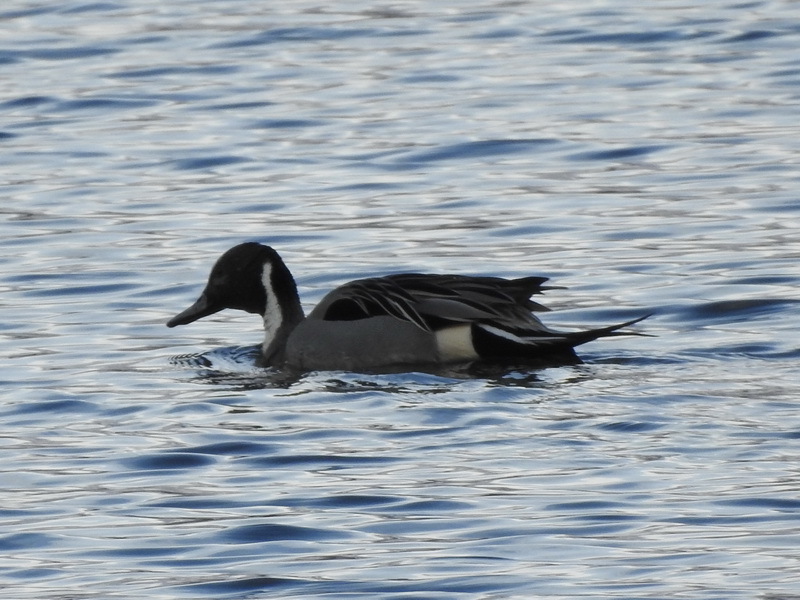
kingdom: Animalia
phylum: Chordata
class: Aves
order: Anseriformes
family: Anatidae
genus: Anas
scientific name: Anas acuta
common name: Northern pintail
